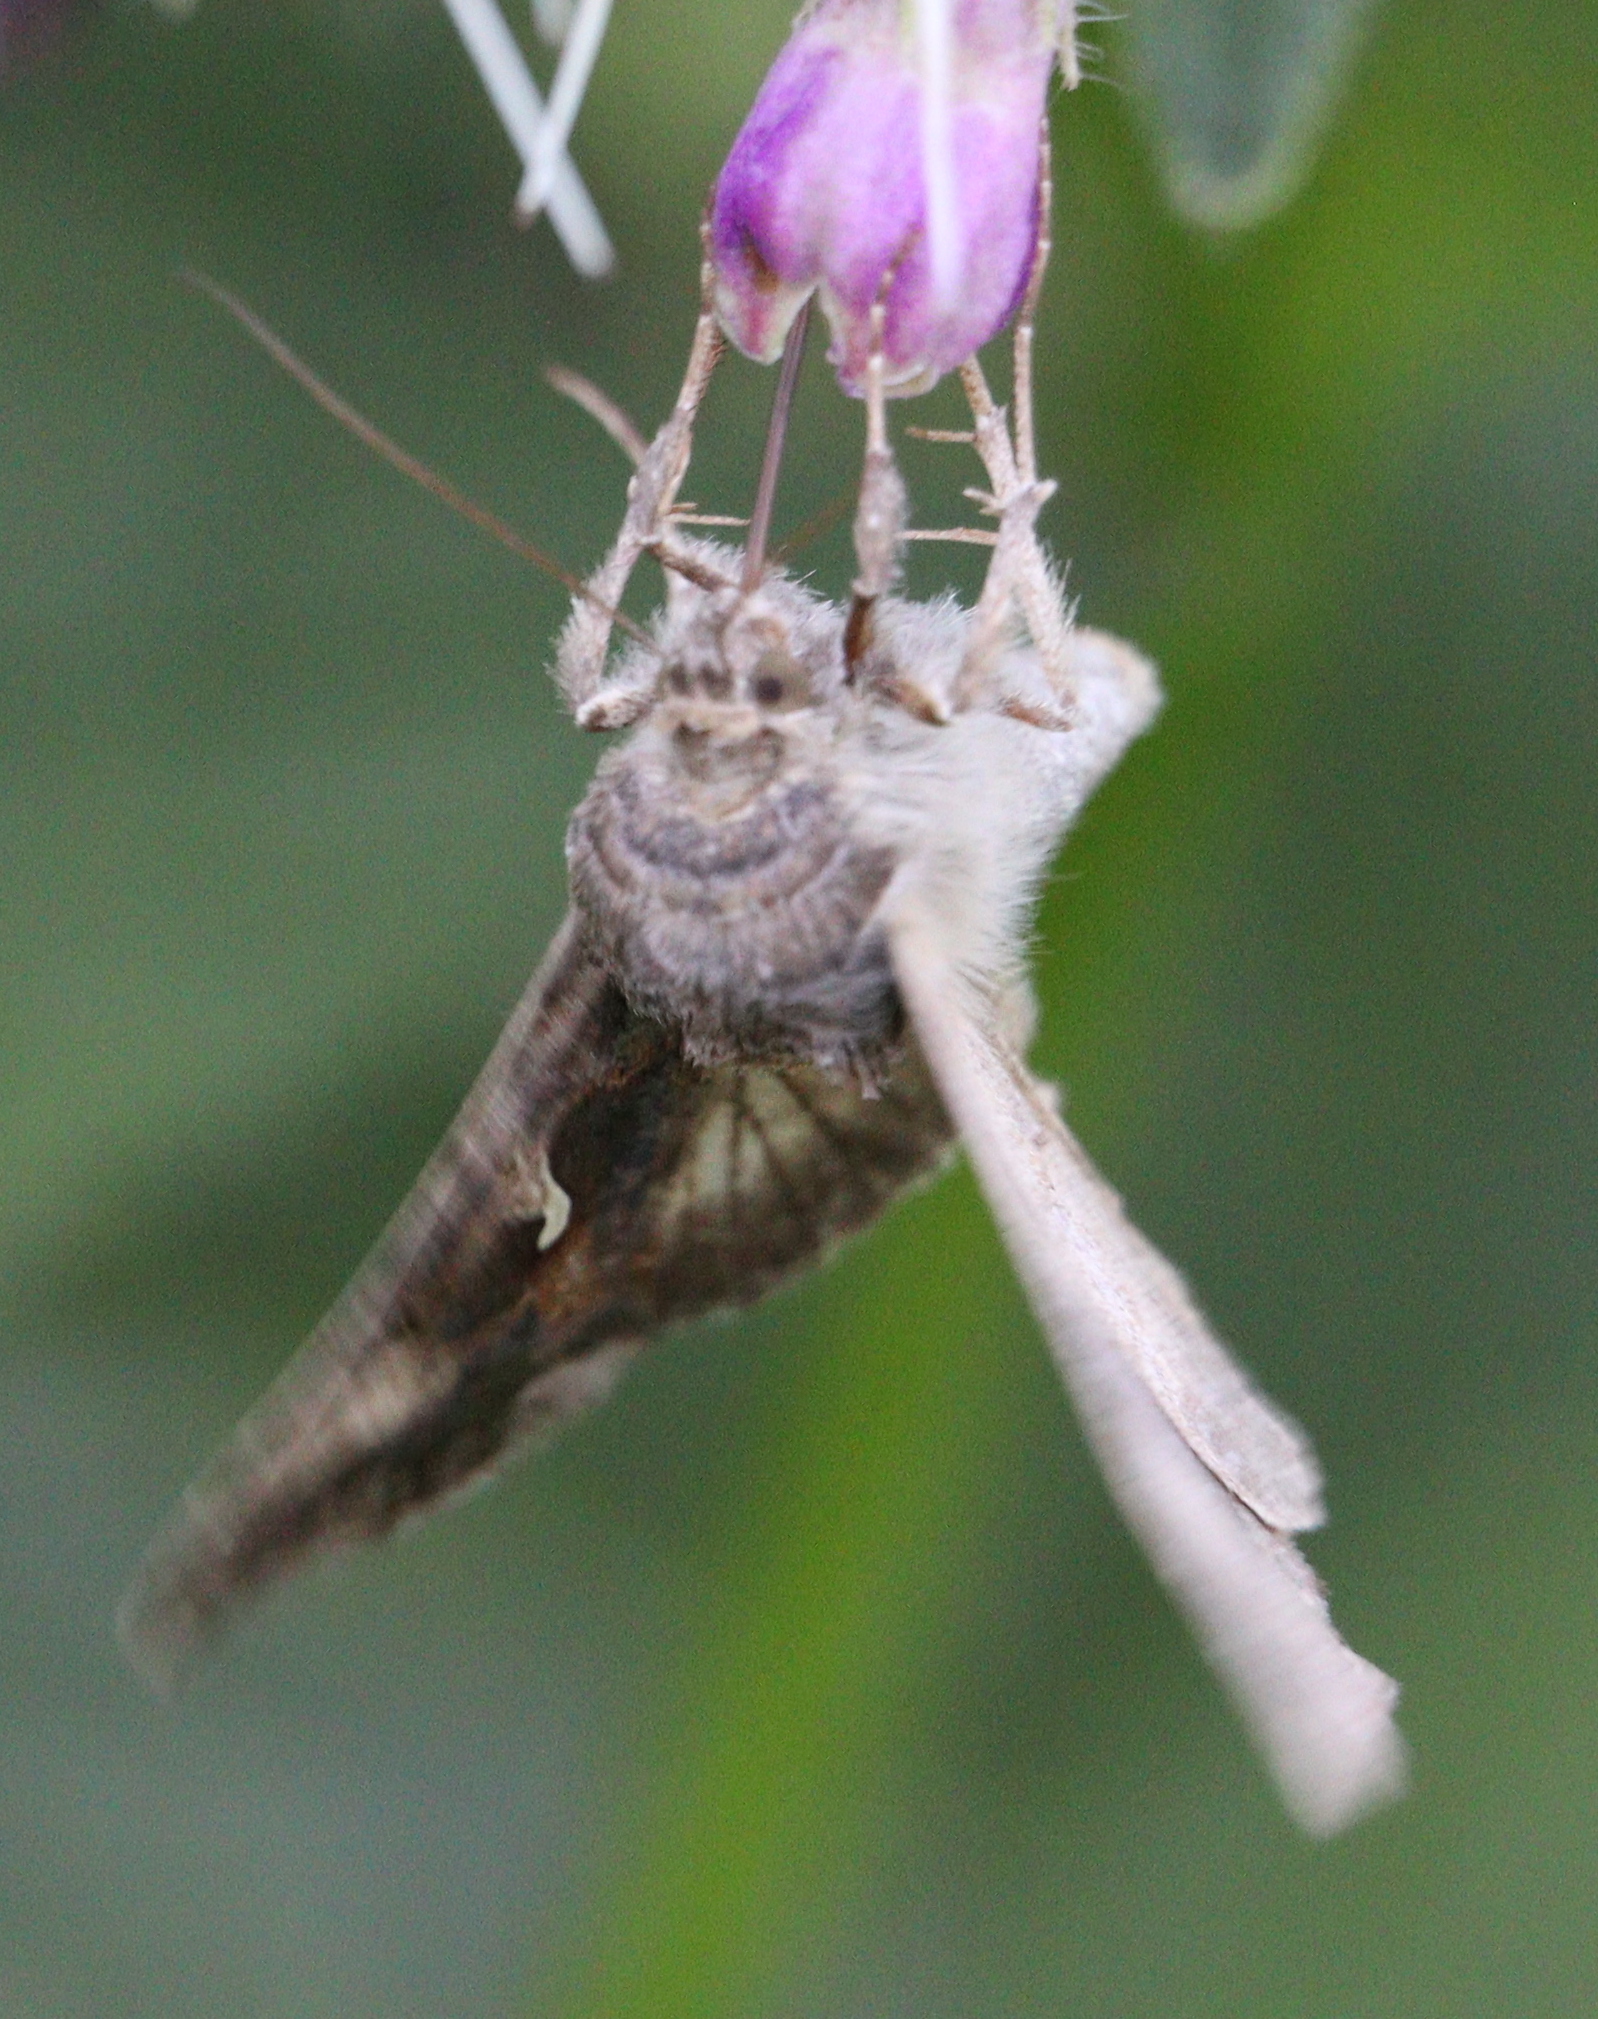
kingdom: Animalia
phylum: Arthropoda
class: Insecta
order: Lepidoptera
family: Noctuidae
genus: Autographa
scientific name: Autographa gamma
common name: Silver y
